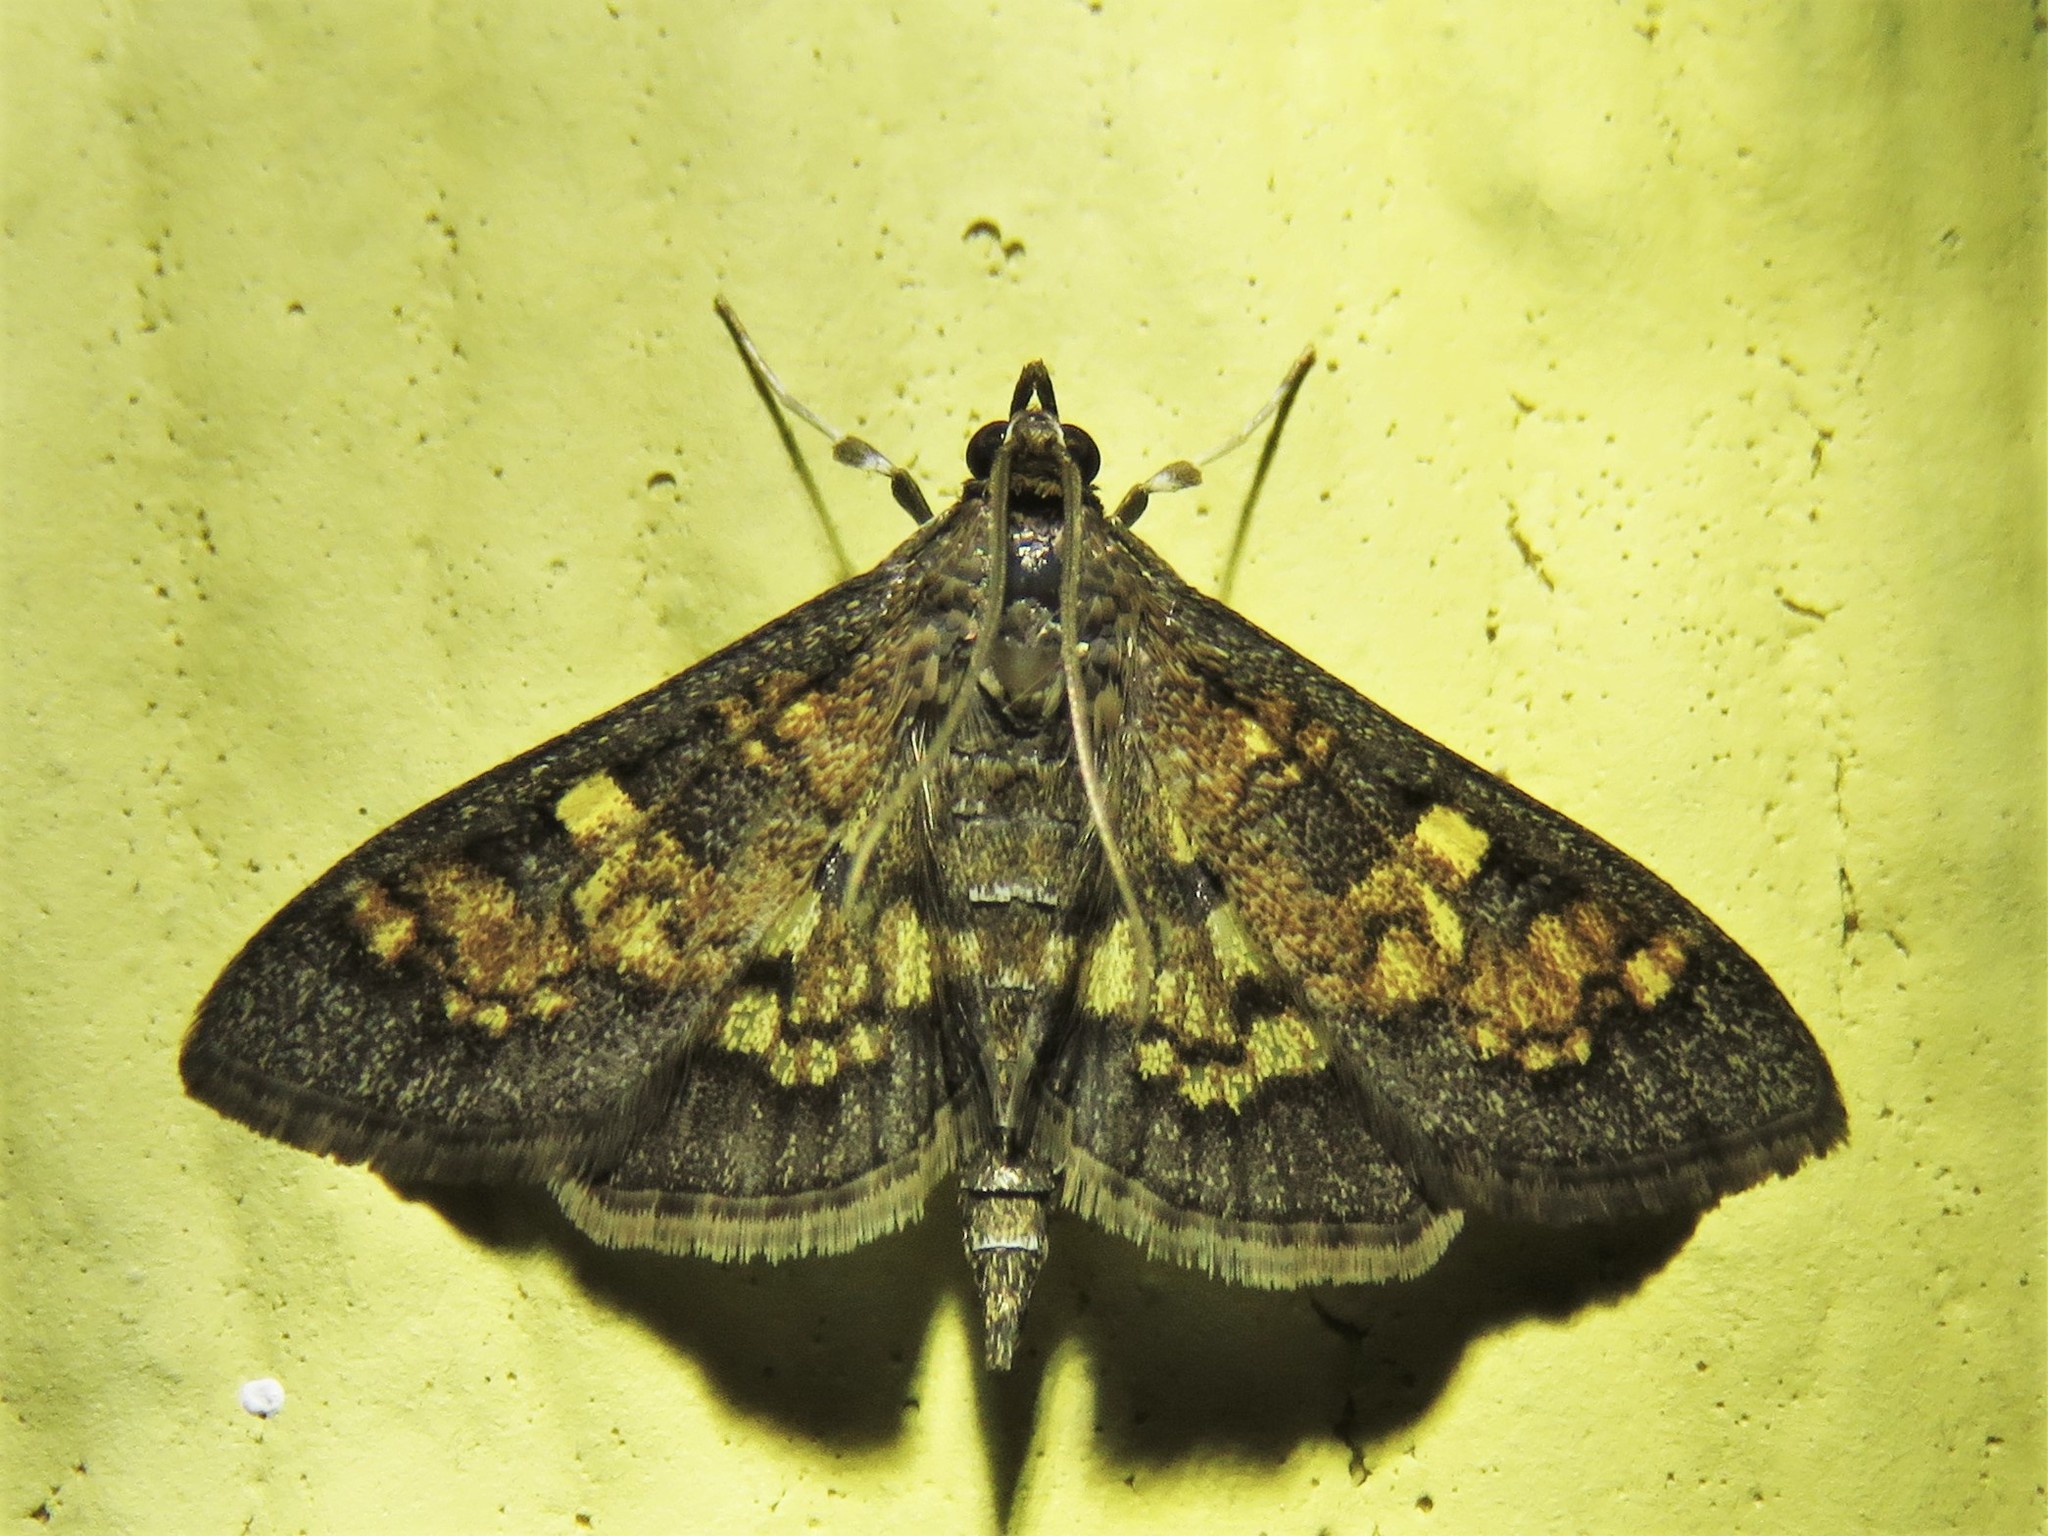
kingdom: Animalia
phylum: Arthropoda
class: Insecta
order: Lepidoptera
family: Crambidae
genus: Epipagis
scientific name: Epipagis adipaloides
